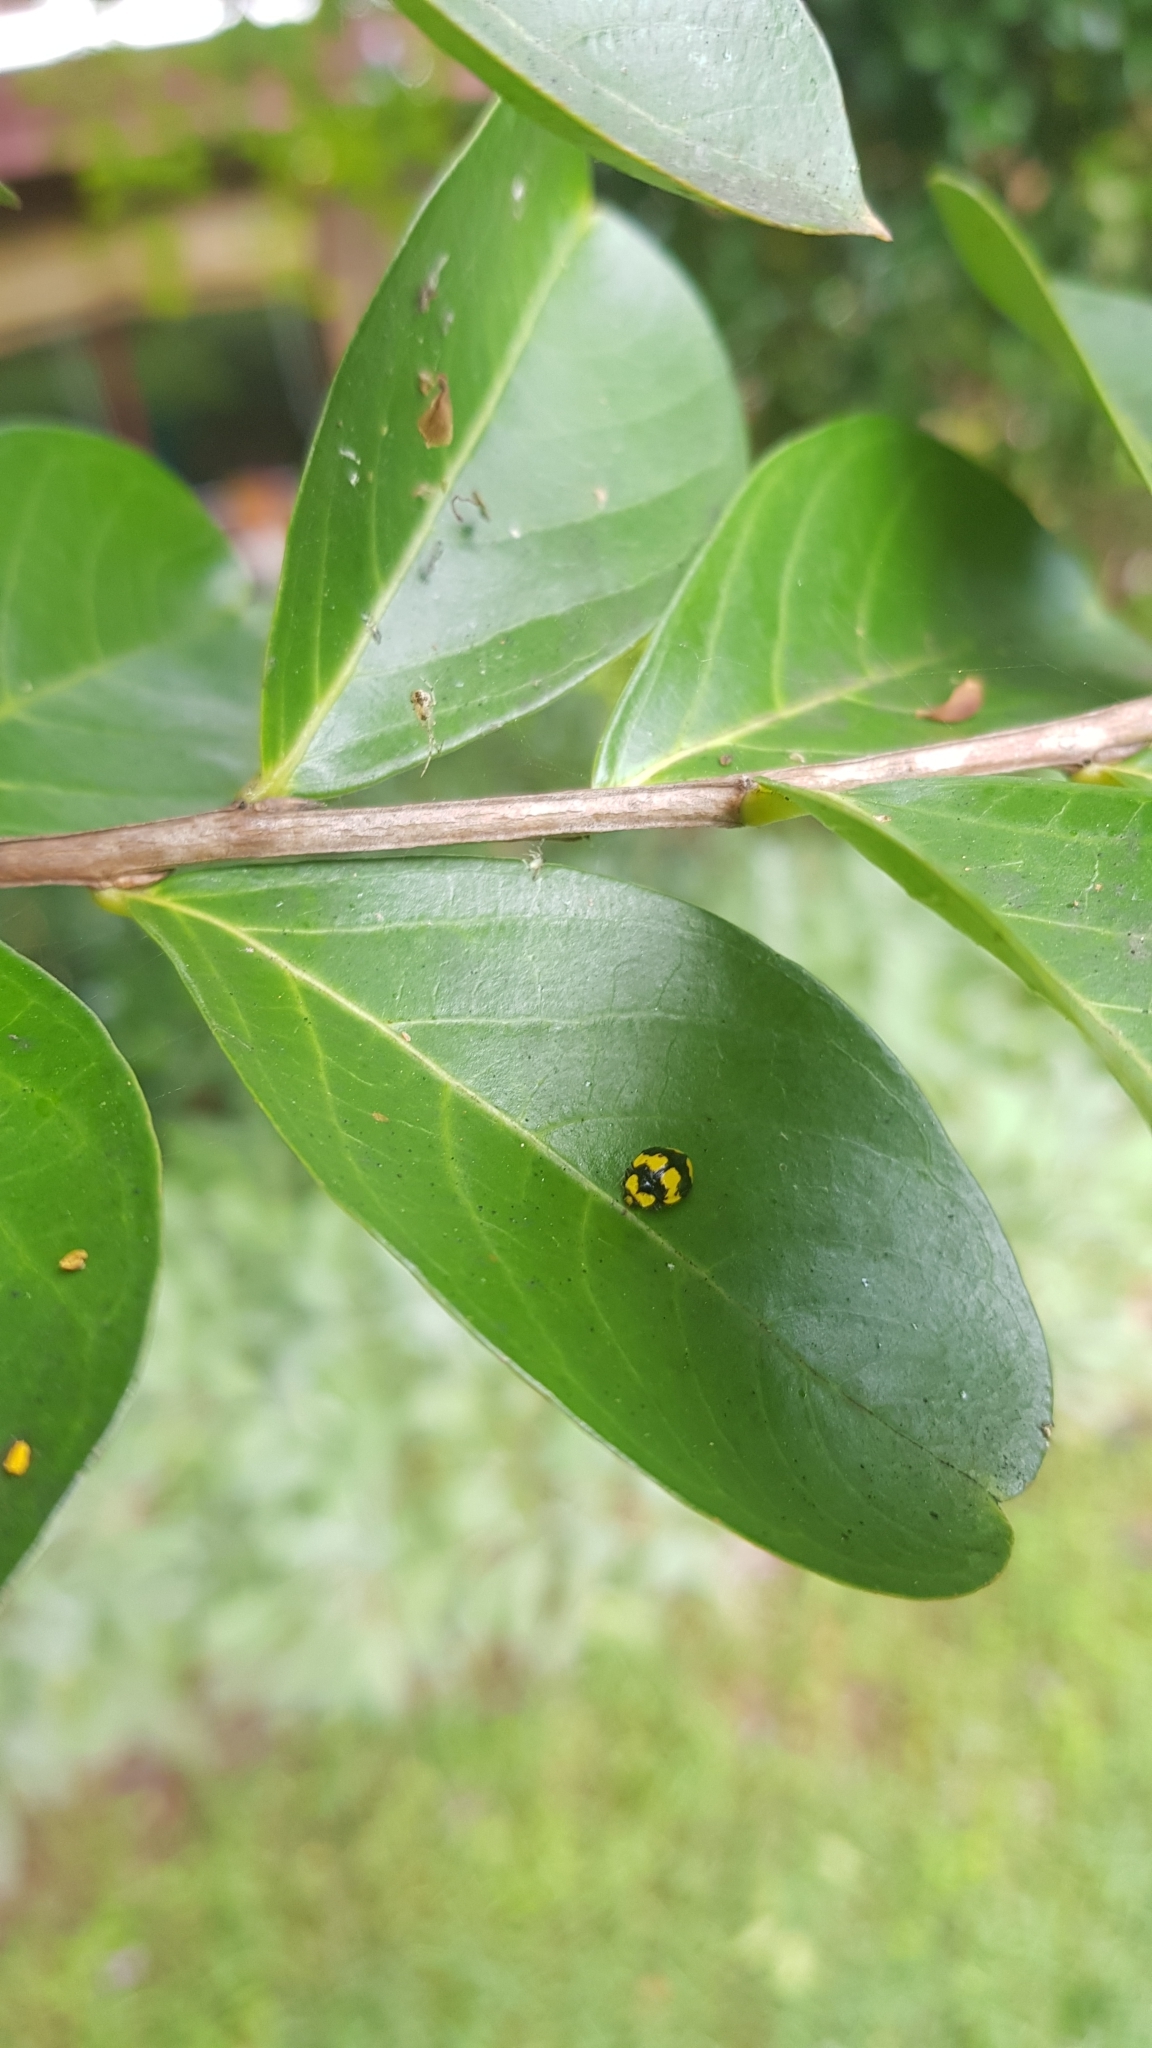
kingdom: Animalia
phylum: Arthropoda
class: Insecta
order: Coleoptera
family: Coccinellidae
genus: Illeis
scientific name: Illeis galbula
